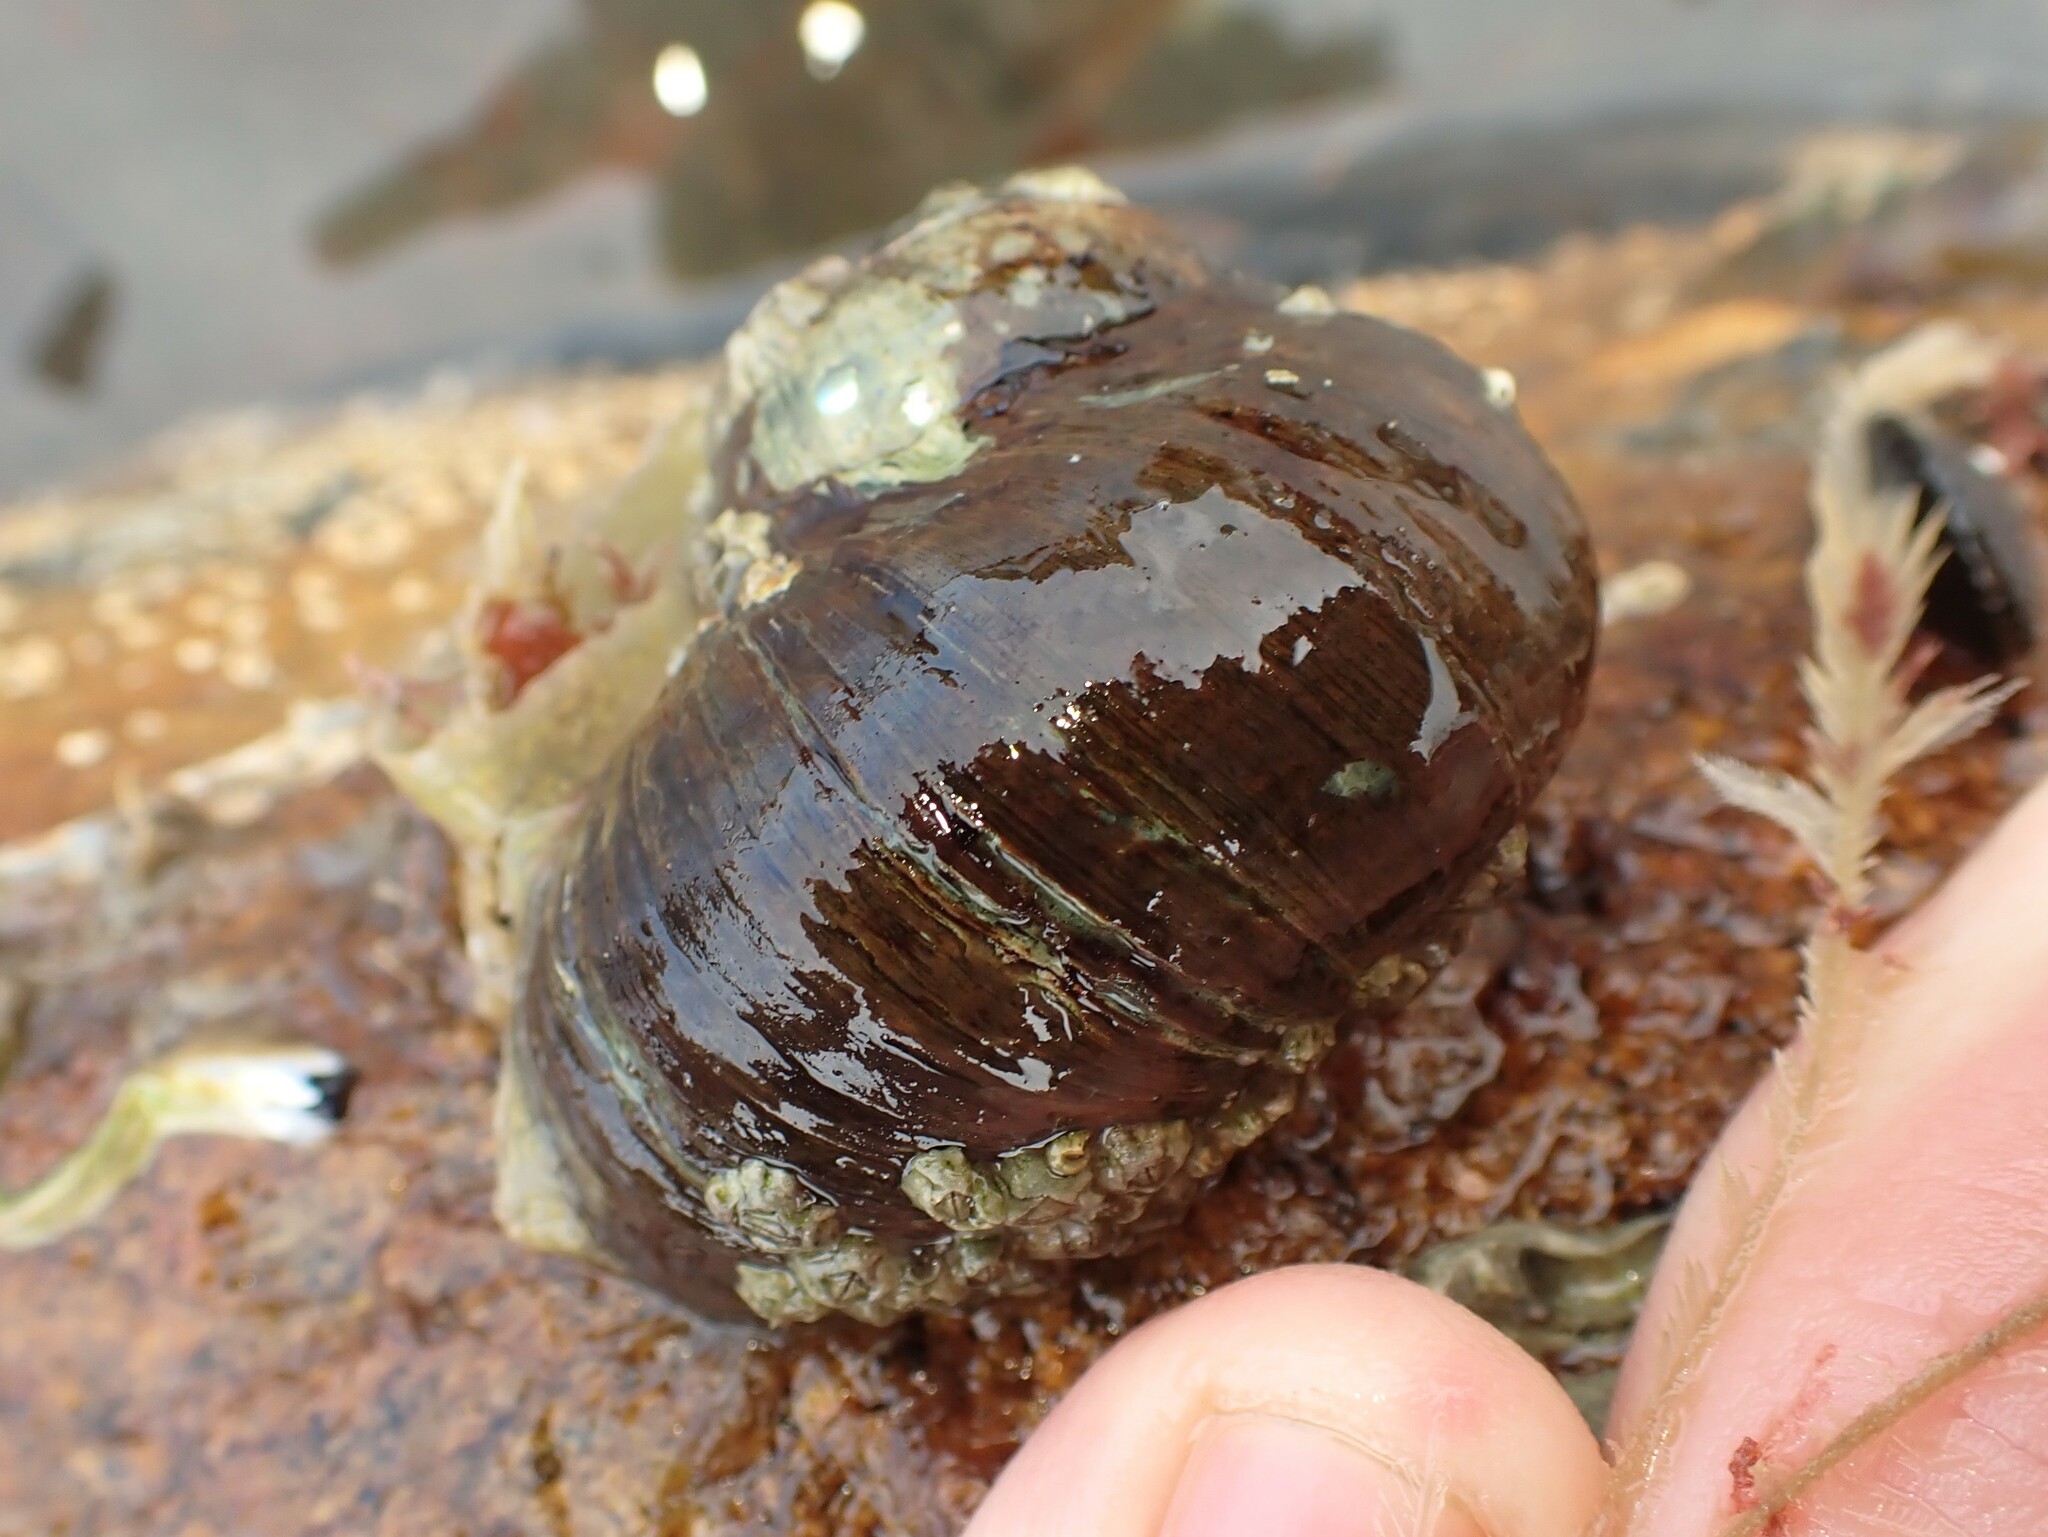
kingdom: Animalia
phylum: Mollusca
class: Gastropoda
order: Trochida
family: Turbinidae
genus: Lunella
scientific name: Lunella smaragda
